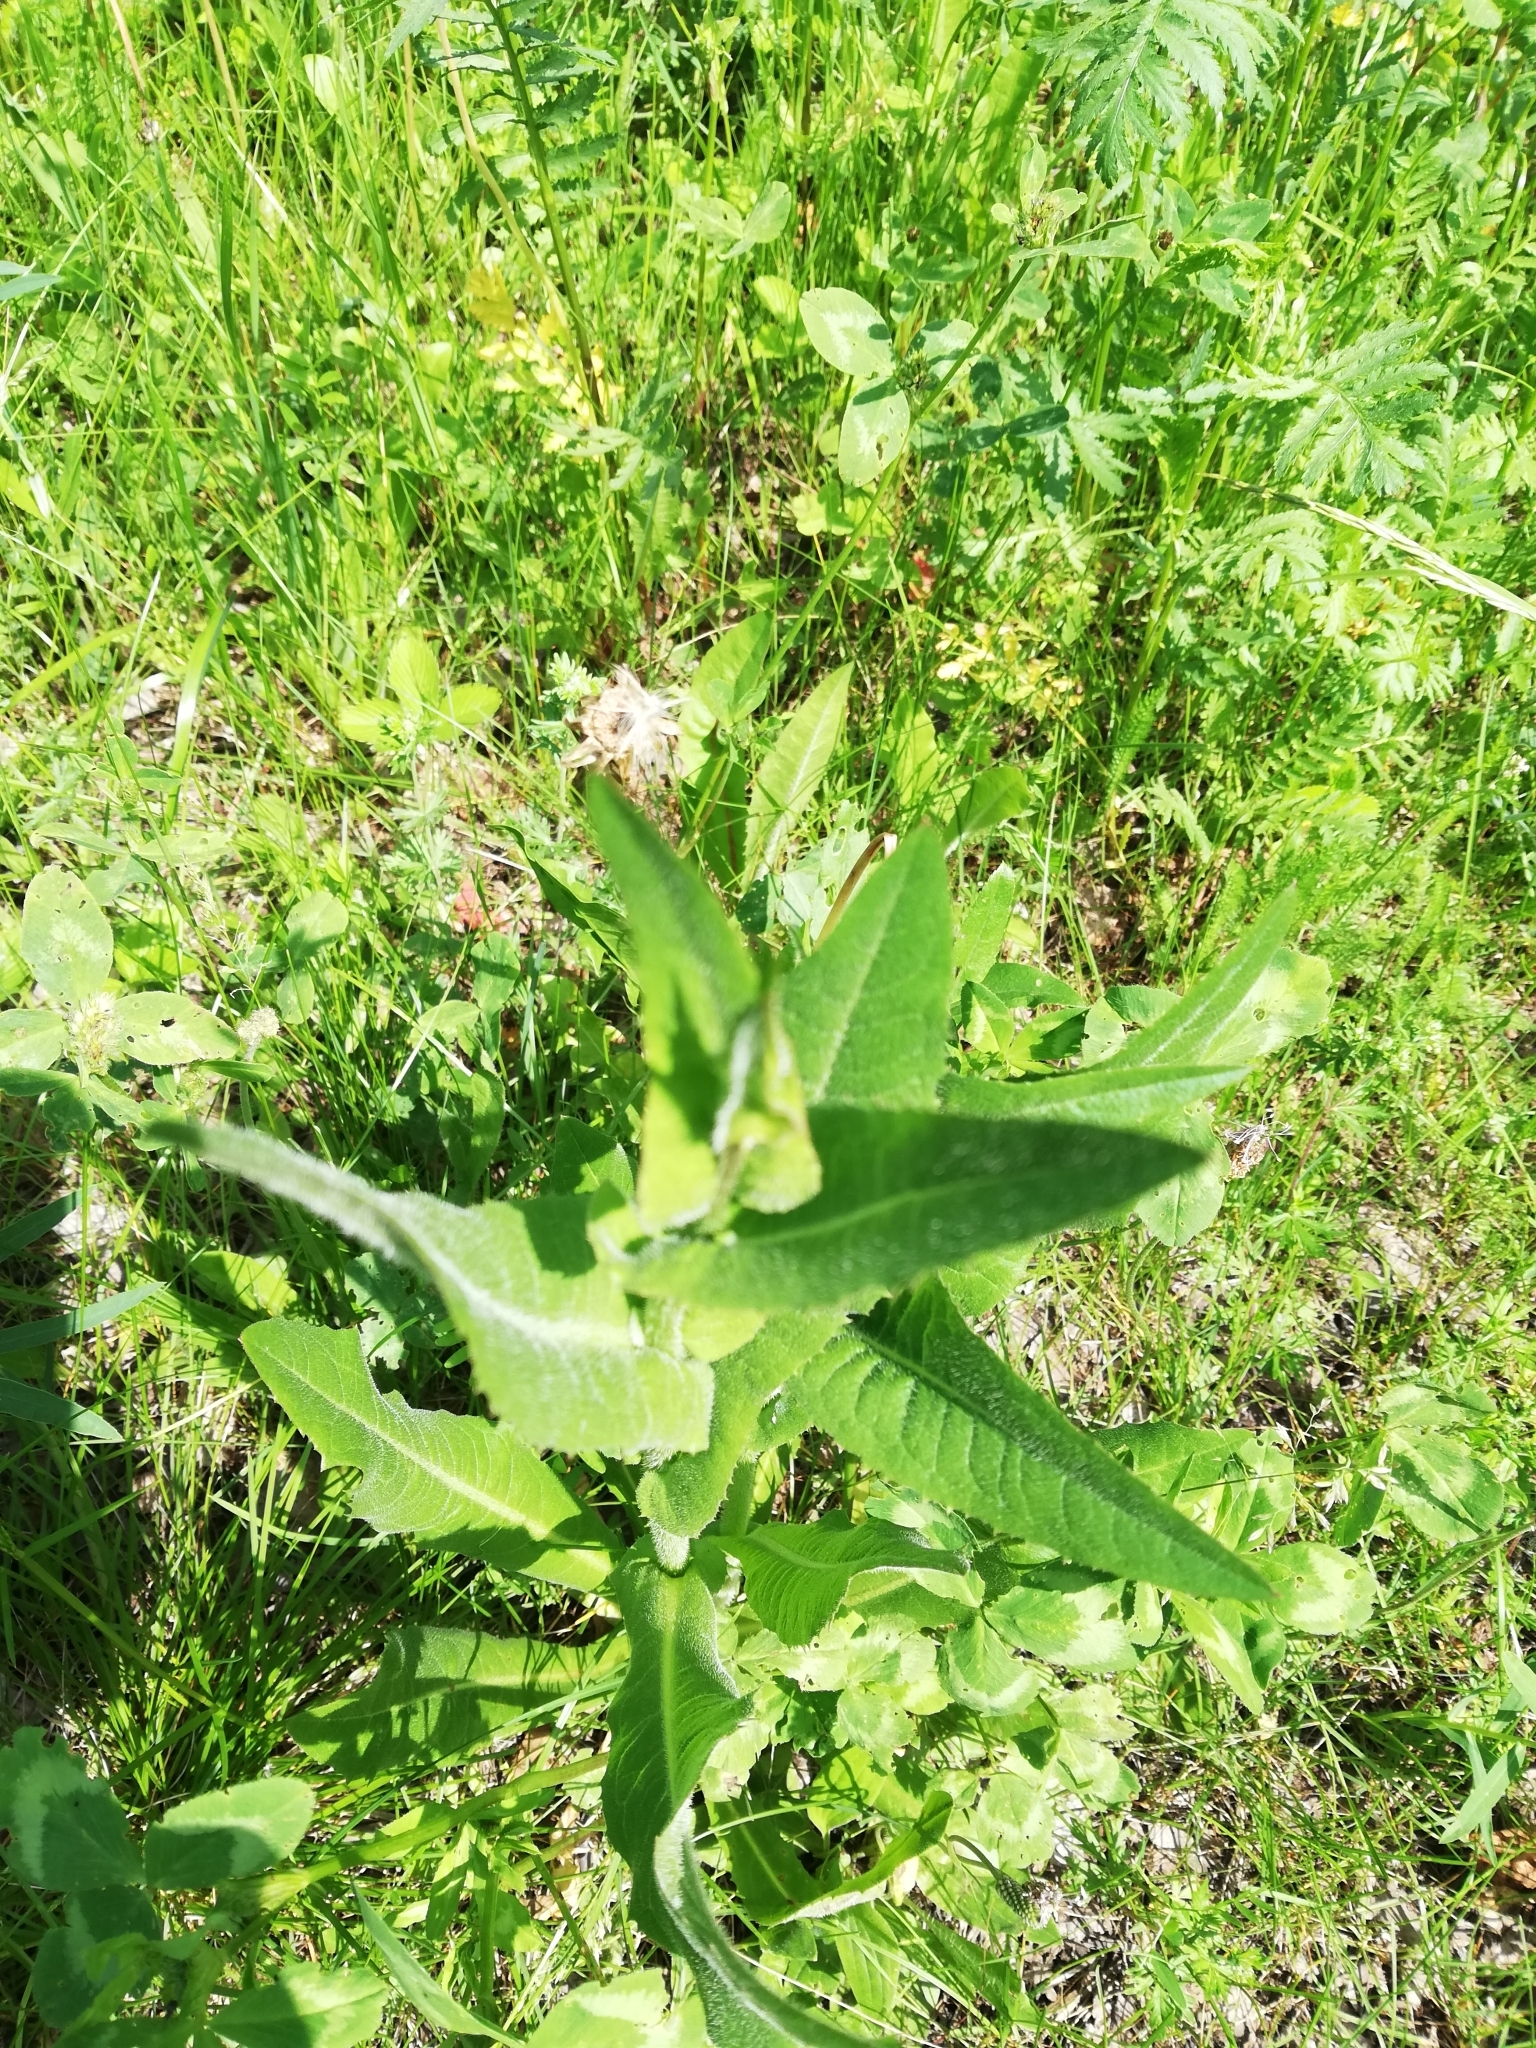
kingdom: Plantae
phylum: Tracheophyta
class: Magnoliopsida
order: Asterales
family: Asteraceae
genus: Cichorium
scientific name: Cichorium intybus
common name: Chicory
